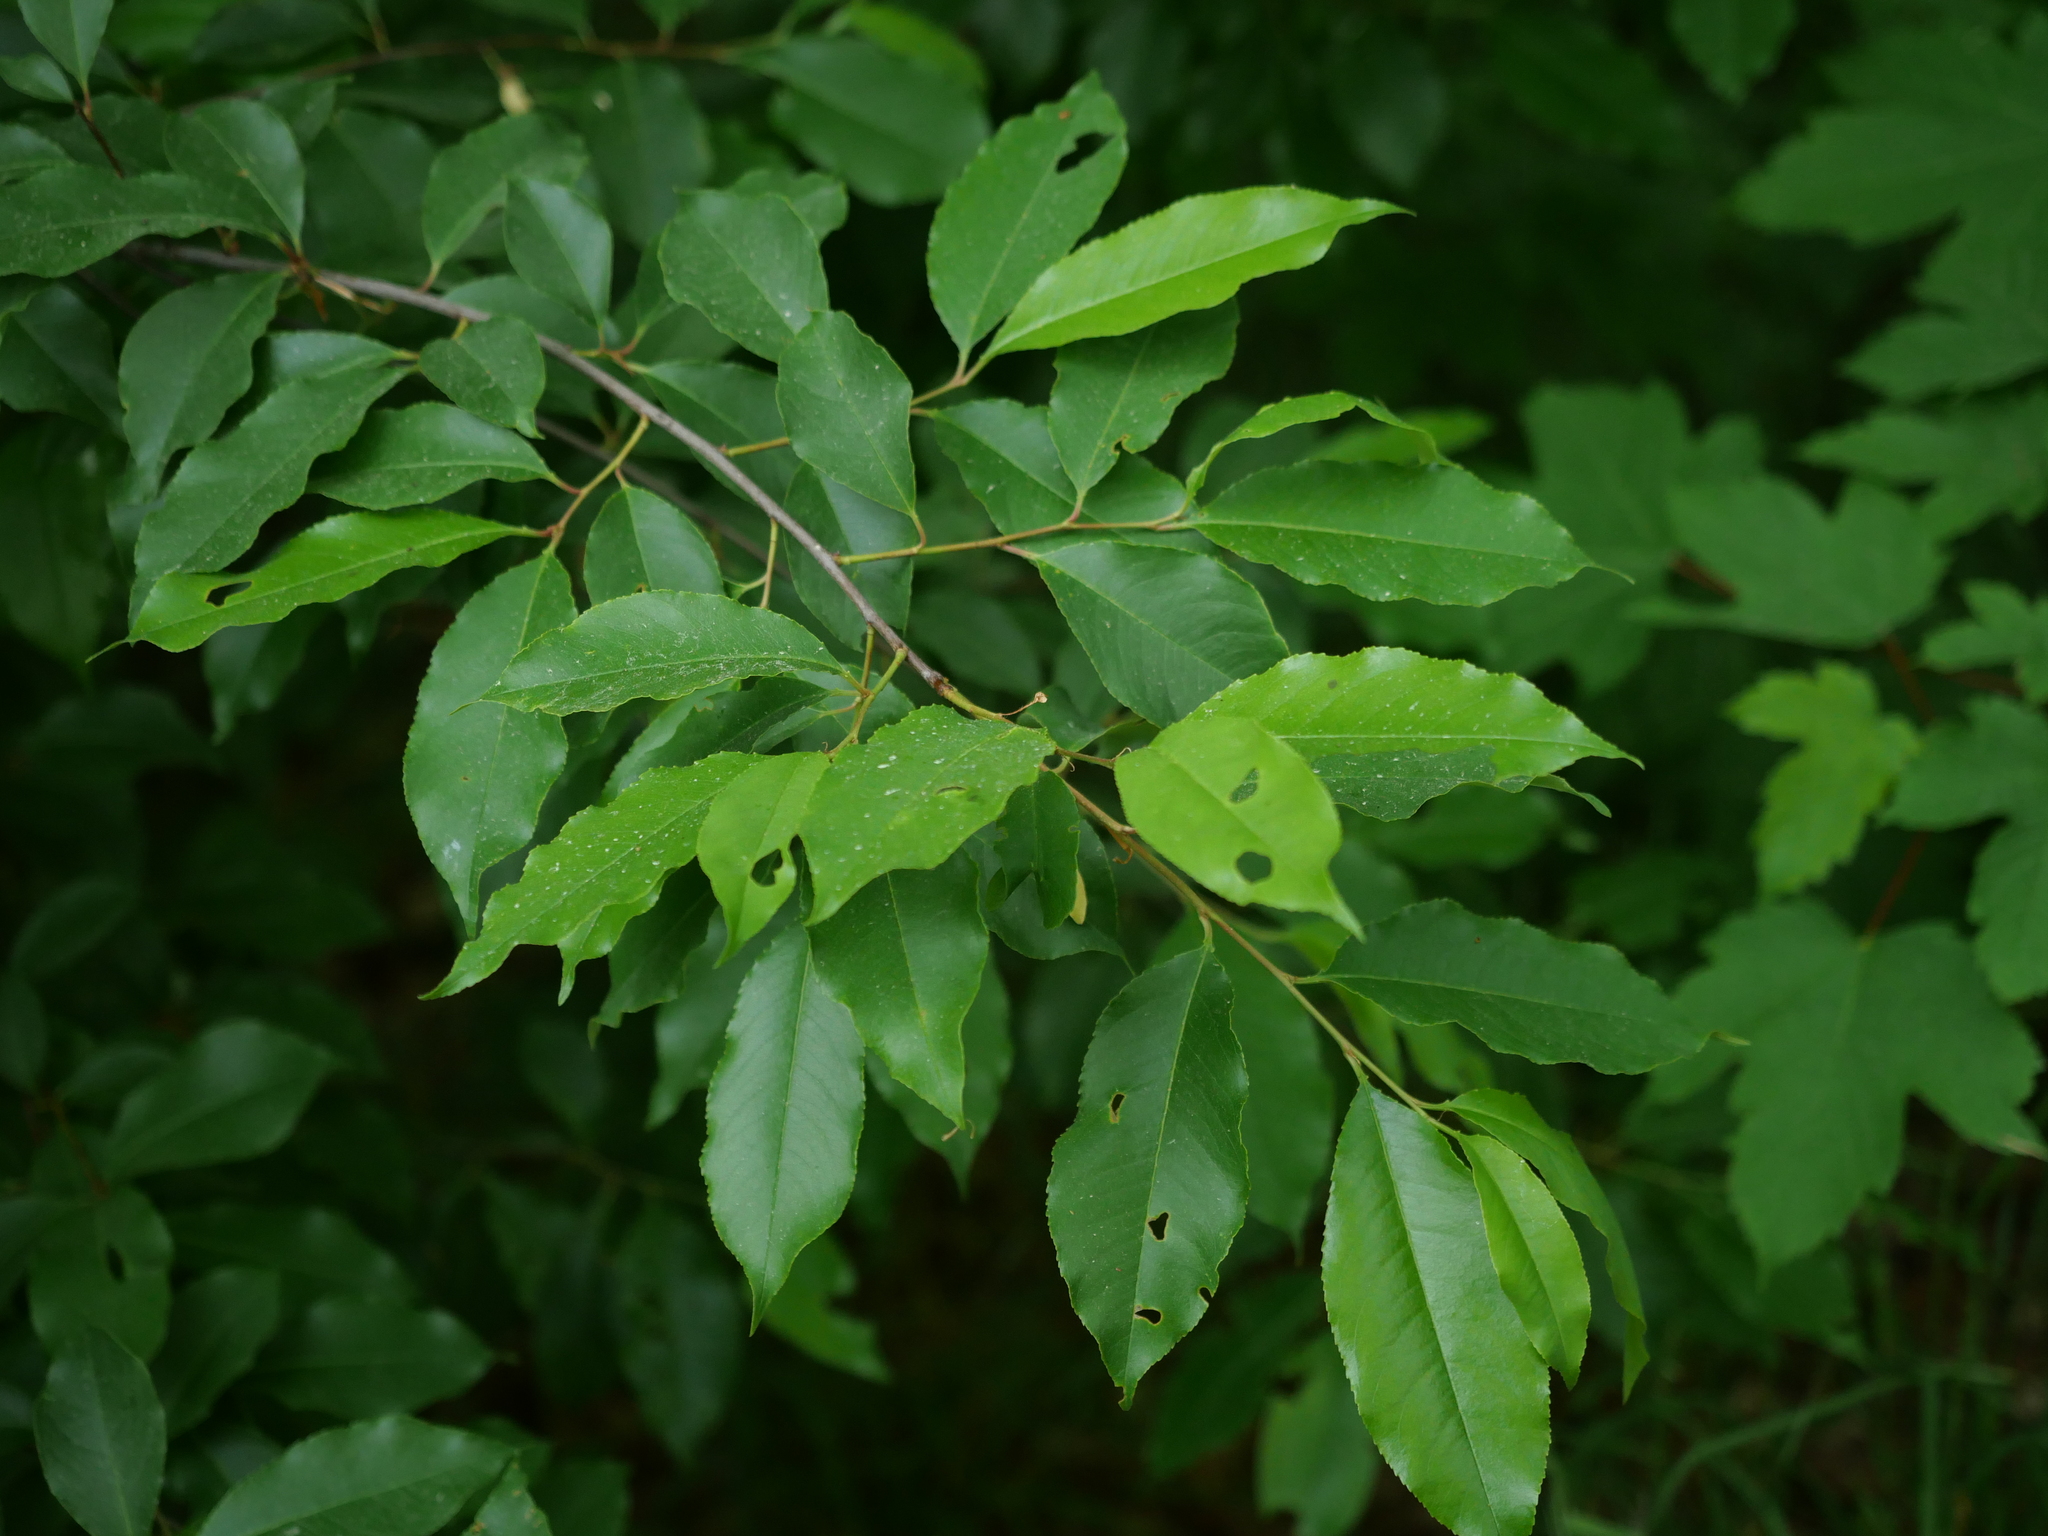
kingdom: Plantae
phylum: Tracheophyta
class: Magnoliopsida
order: Rosales
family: Rosaceae
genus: Prunus
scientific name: Prunus serotina
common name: Black cherry
